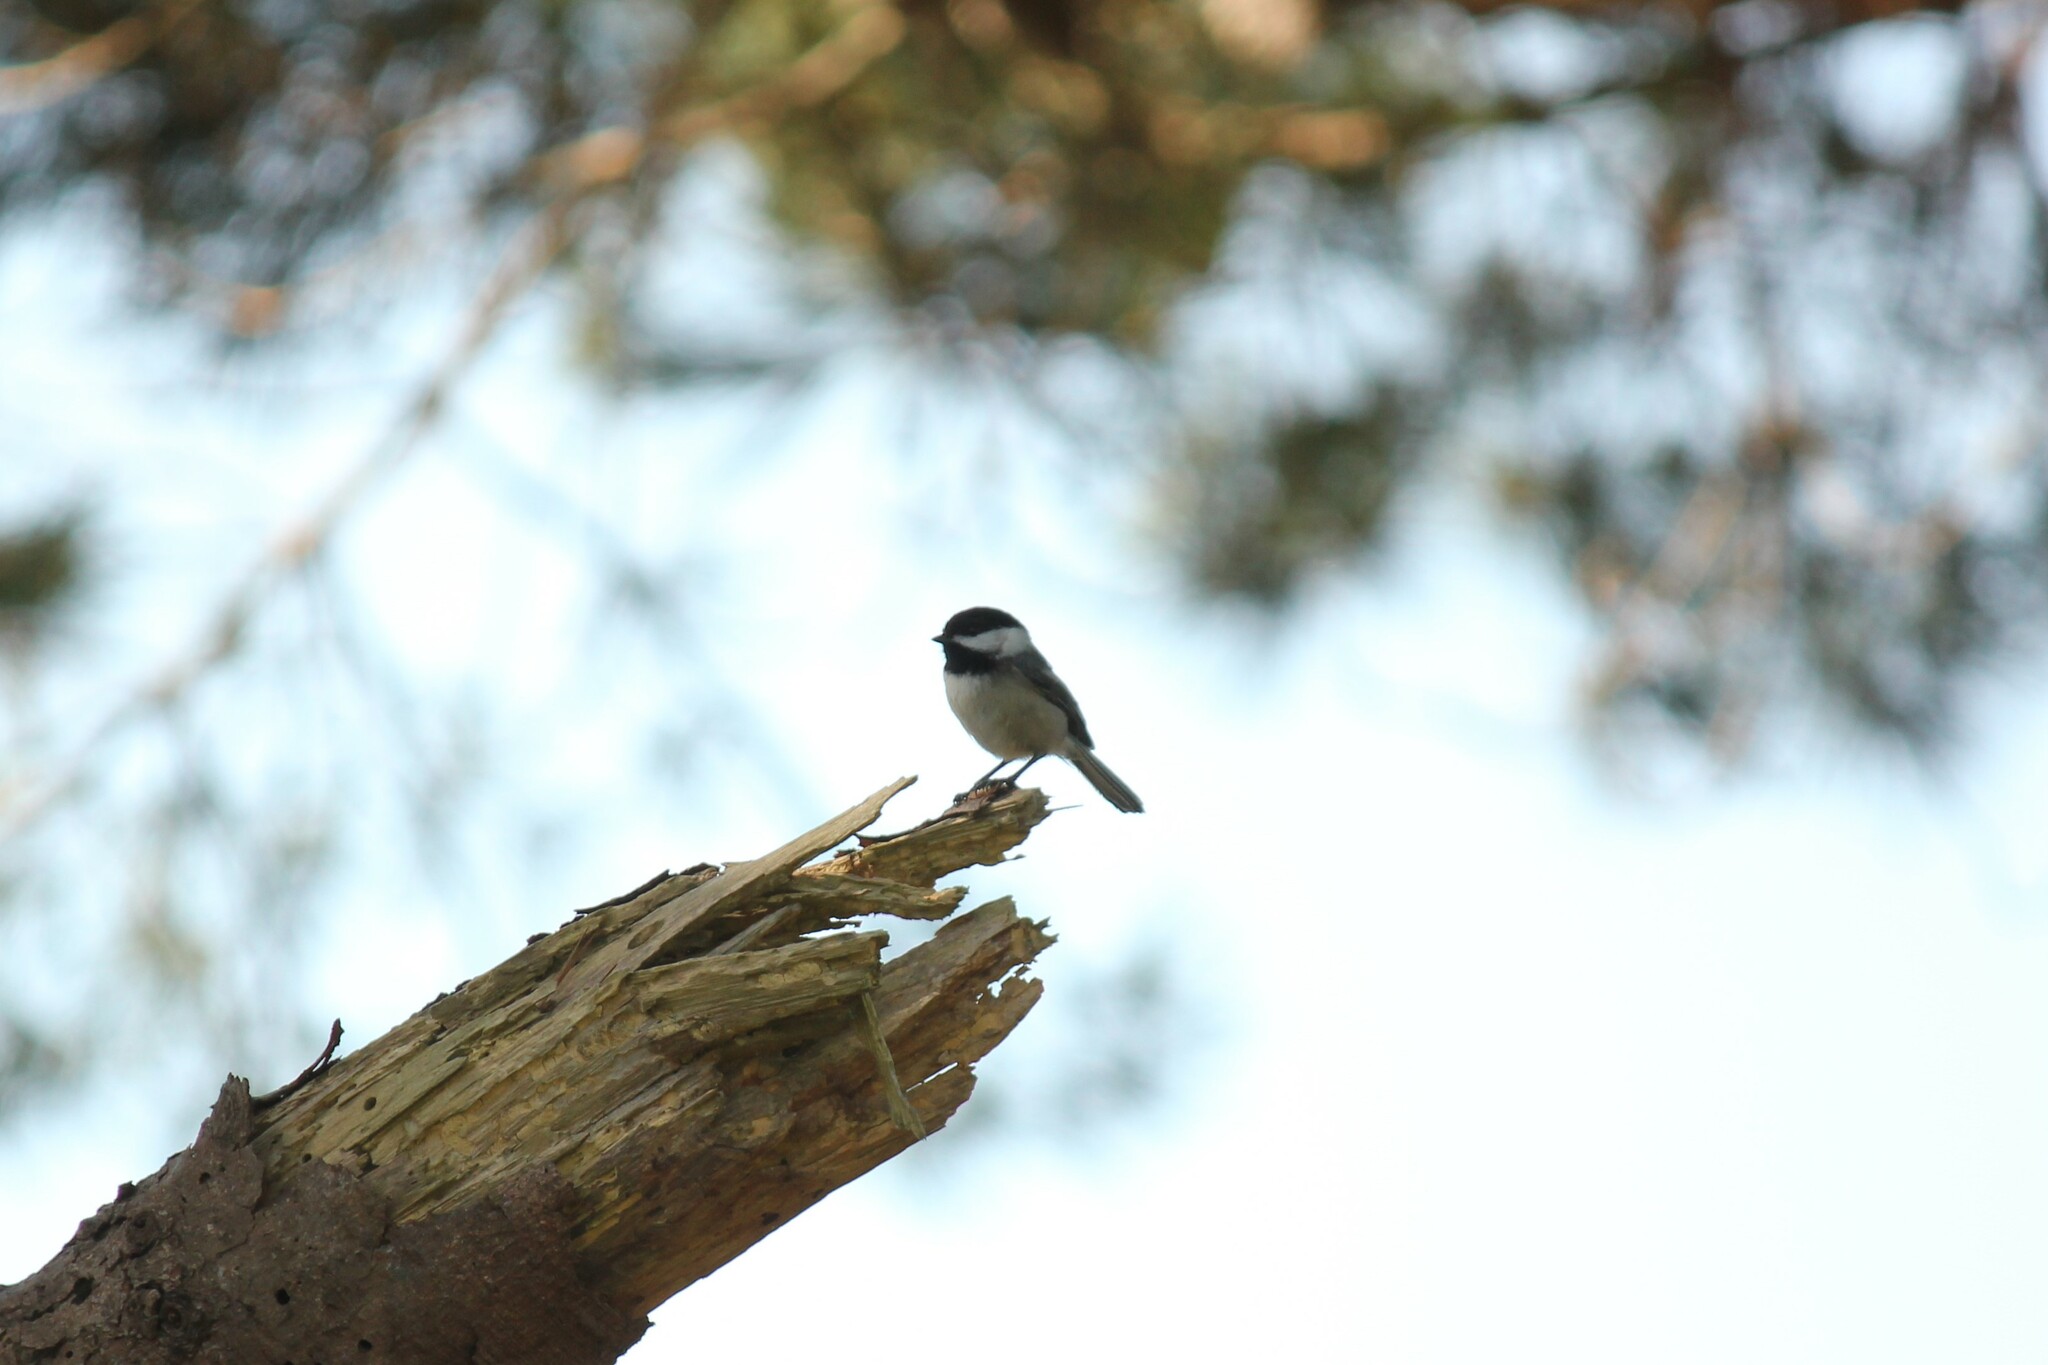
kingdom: Animalia
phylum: Chordata
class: Aves
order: Passeriformes
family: Paridae
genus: Poecile
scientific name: Poecile atricapillus
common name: Black-capped chickadee
